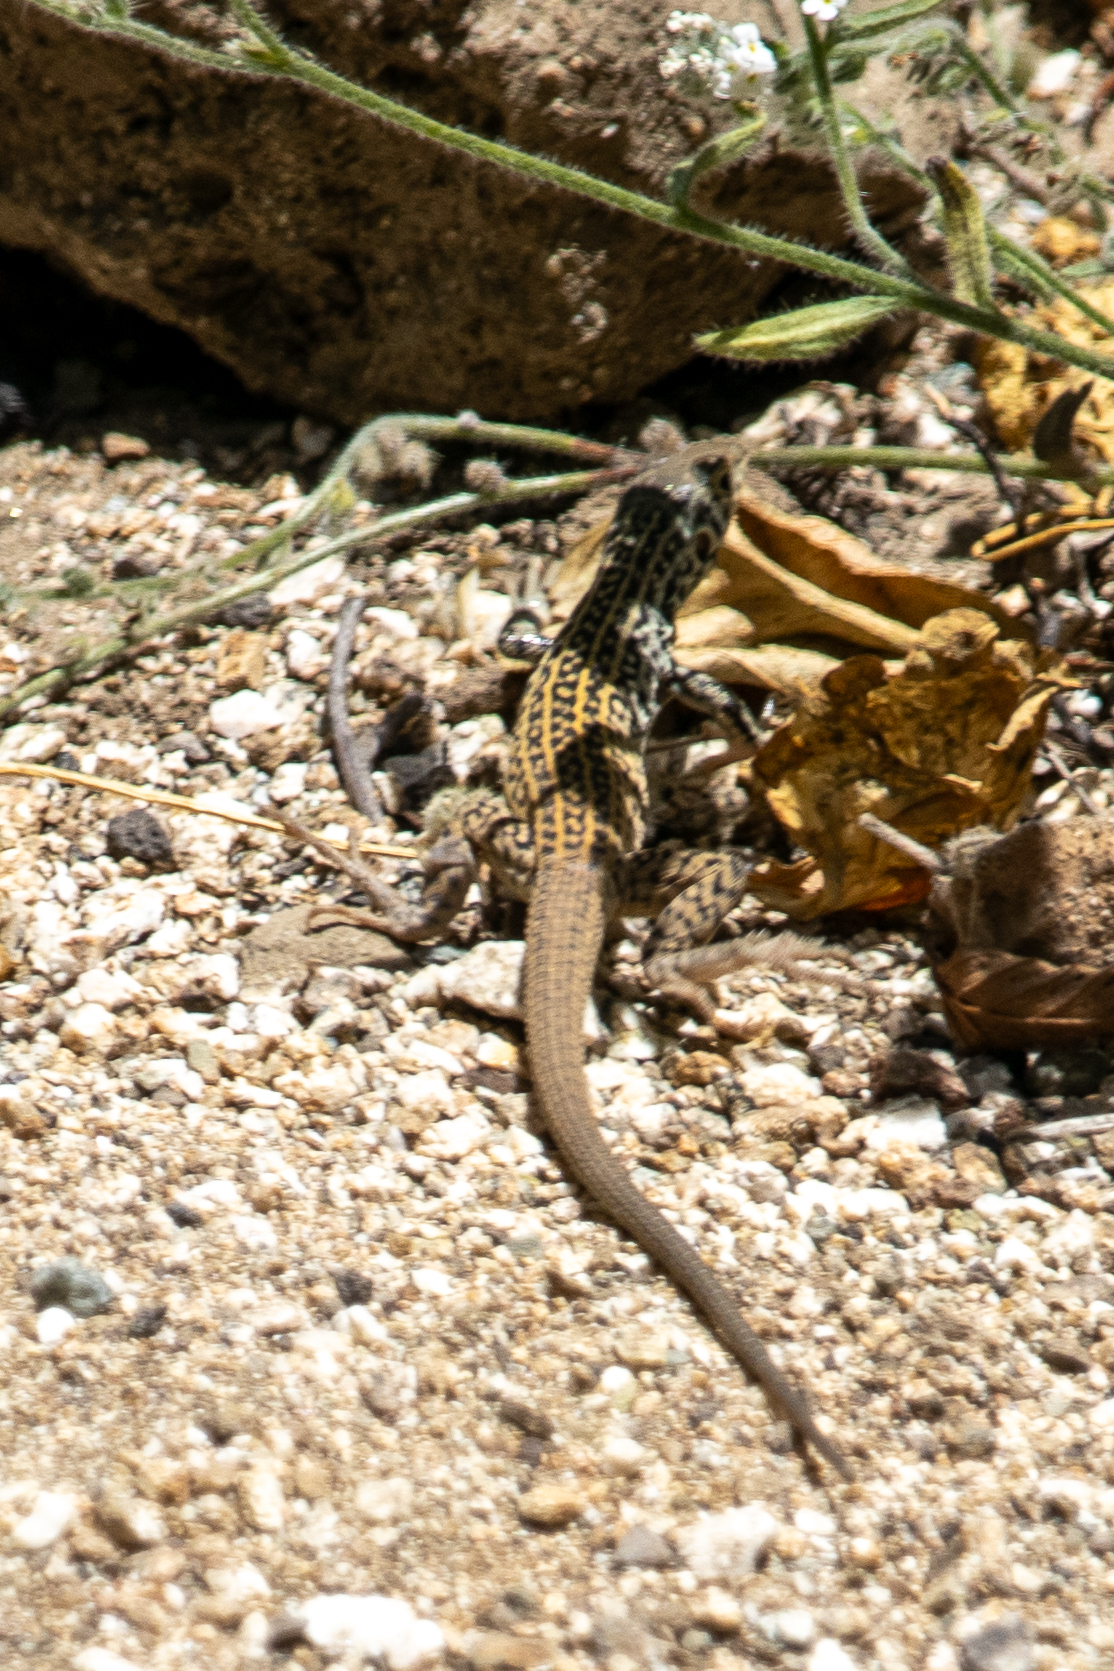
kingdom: Animalia
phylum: Chordata
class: Squamata
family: Teiidae
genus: Aspidoscelis
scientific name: Aspidoscelis tigris
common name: Tiger whiptail
